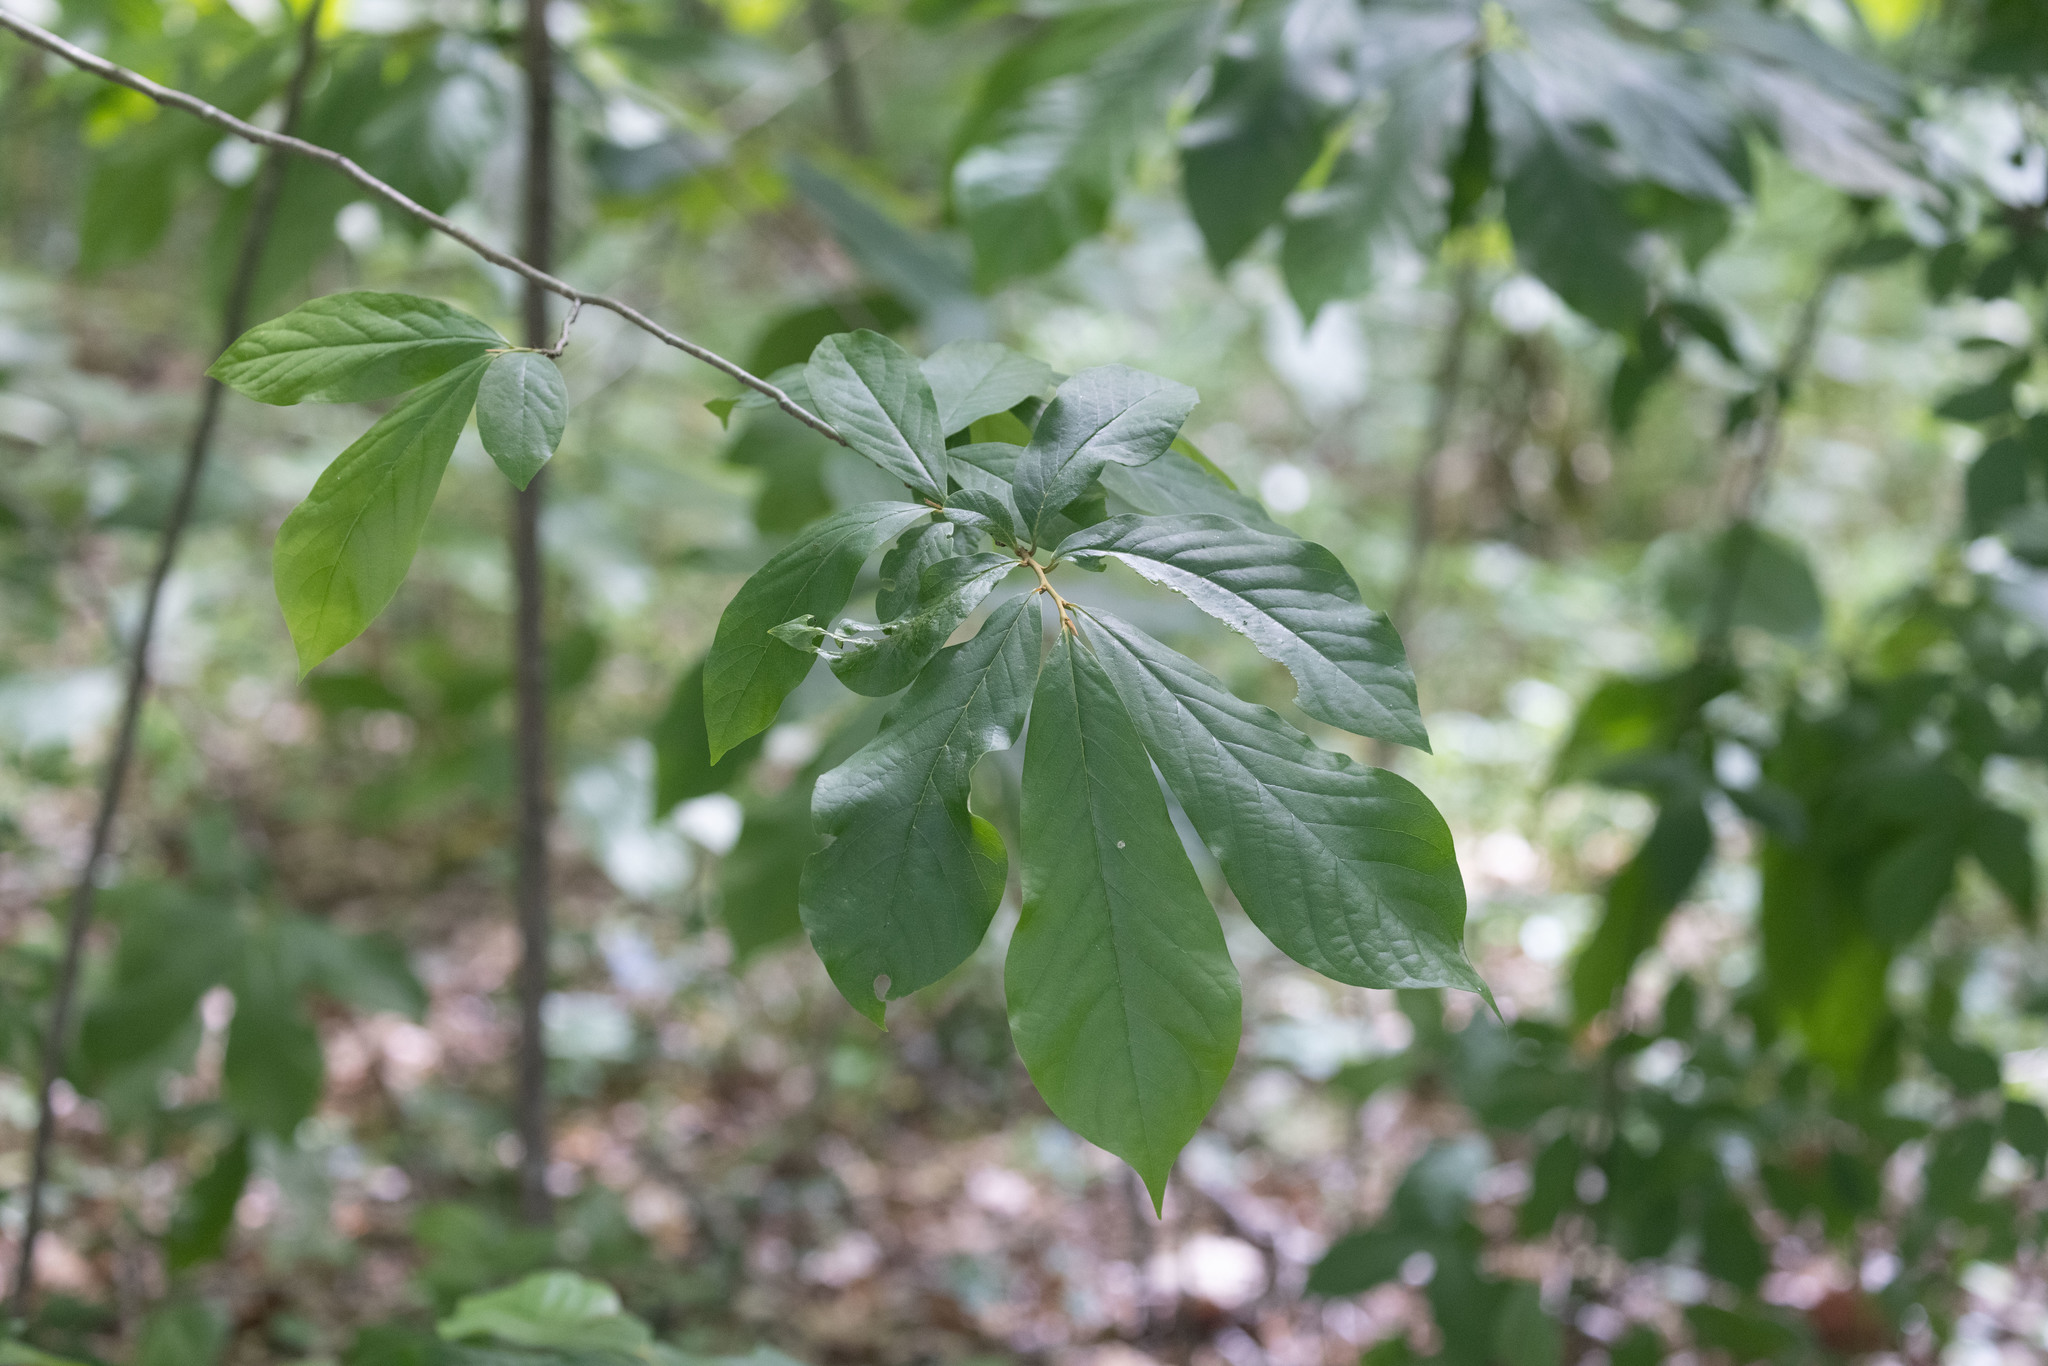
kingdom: Plantae
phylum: Tracheophyta
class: Magnoliopsida
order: Magnoliales
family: Annonaceae
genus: Asimina
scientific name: Asimina triloba
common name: Dog-banana
